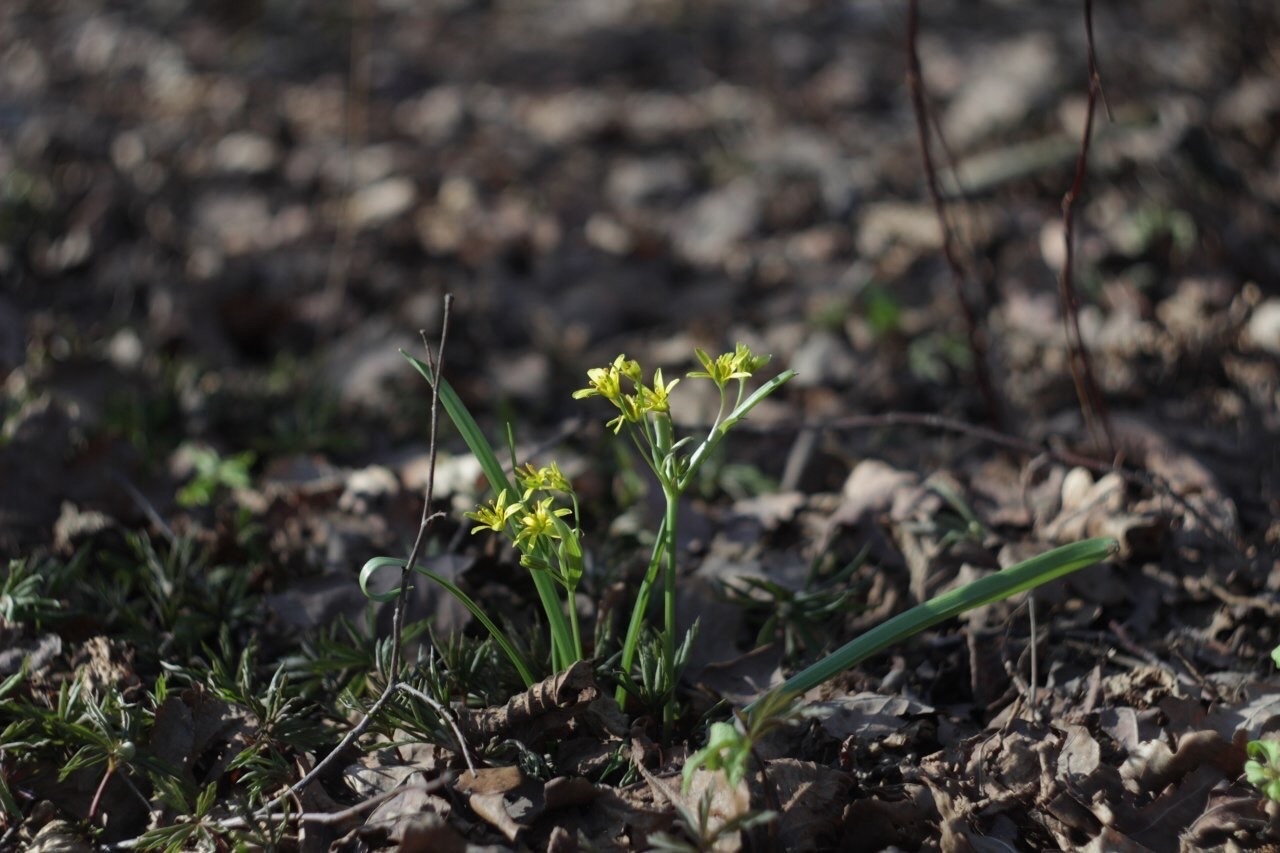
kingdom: Plantae
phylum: Tracheophyta
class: Liliopsida
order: Liliales
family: Liliaceae
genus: Gagea
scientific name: Gagea lutea
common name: Yellow star-of-bethlehem
